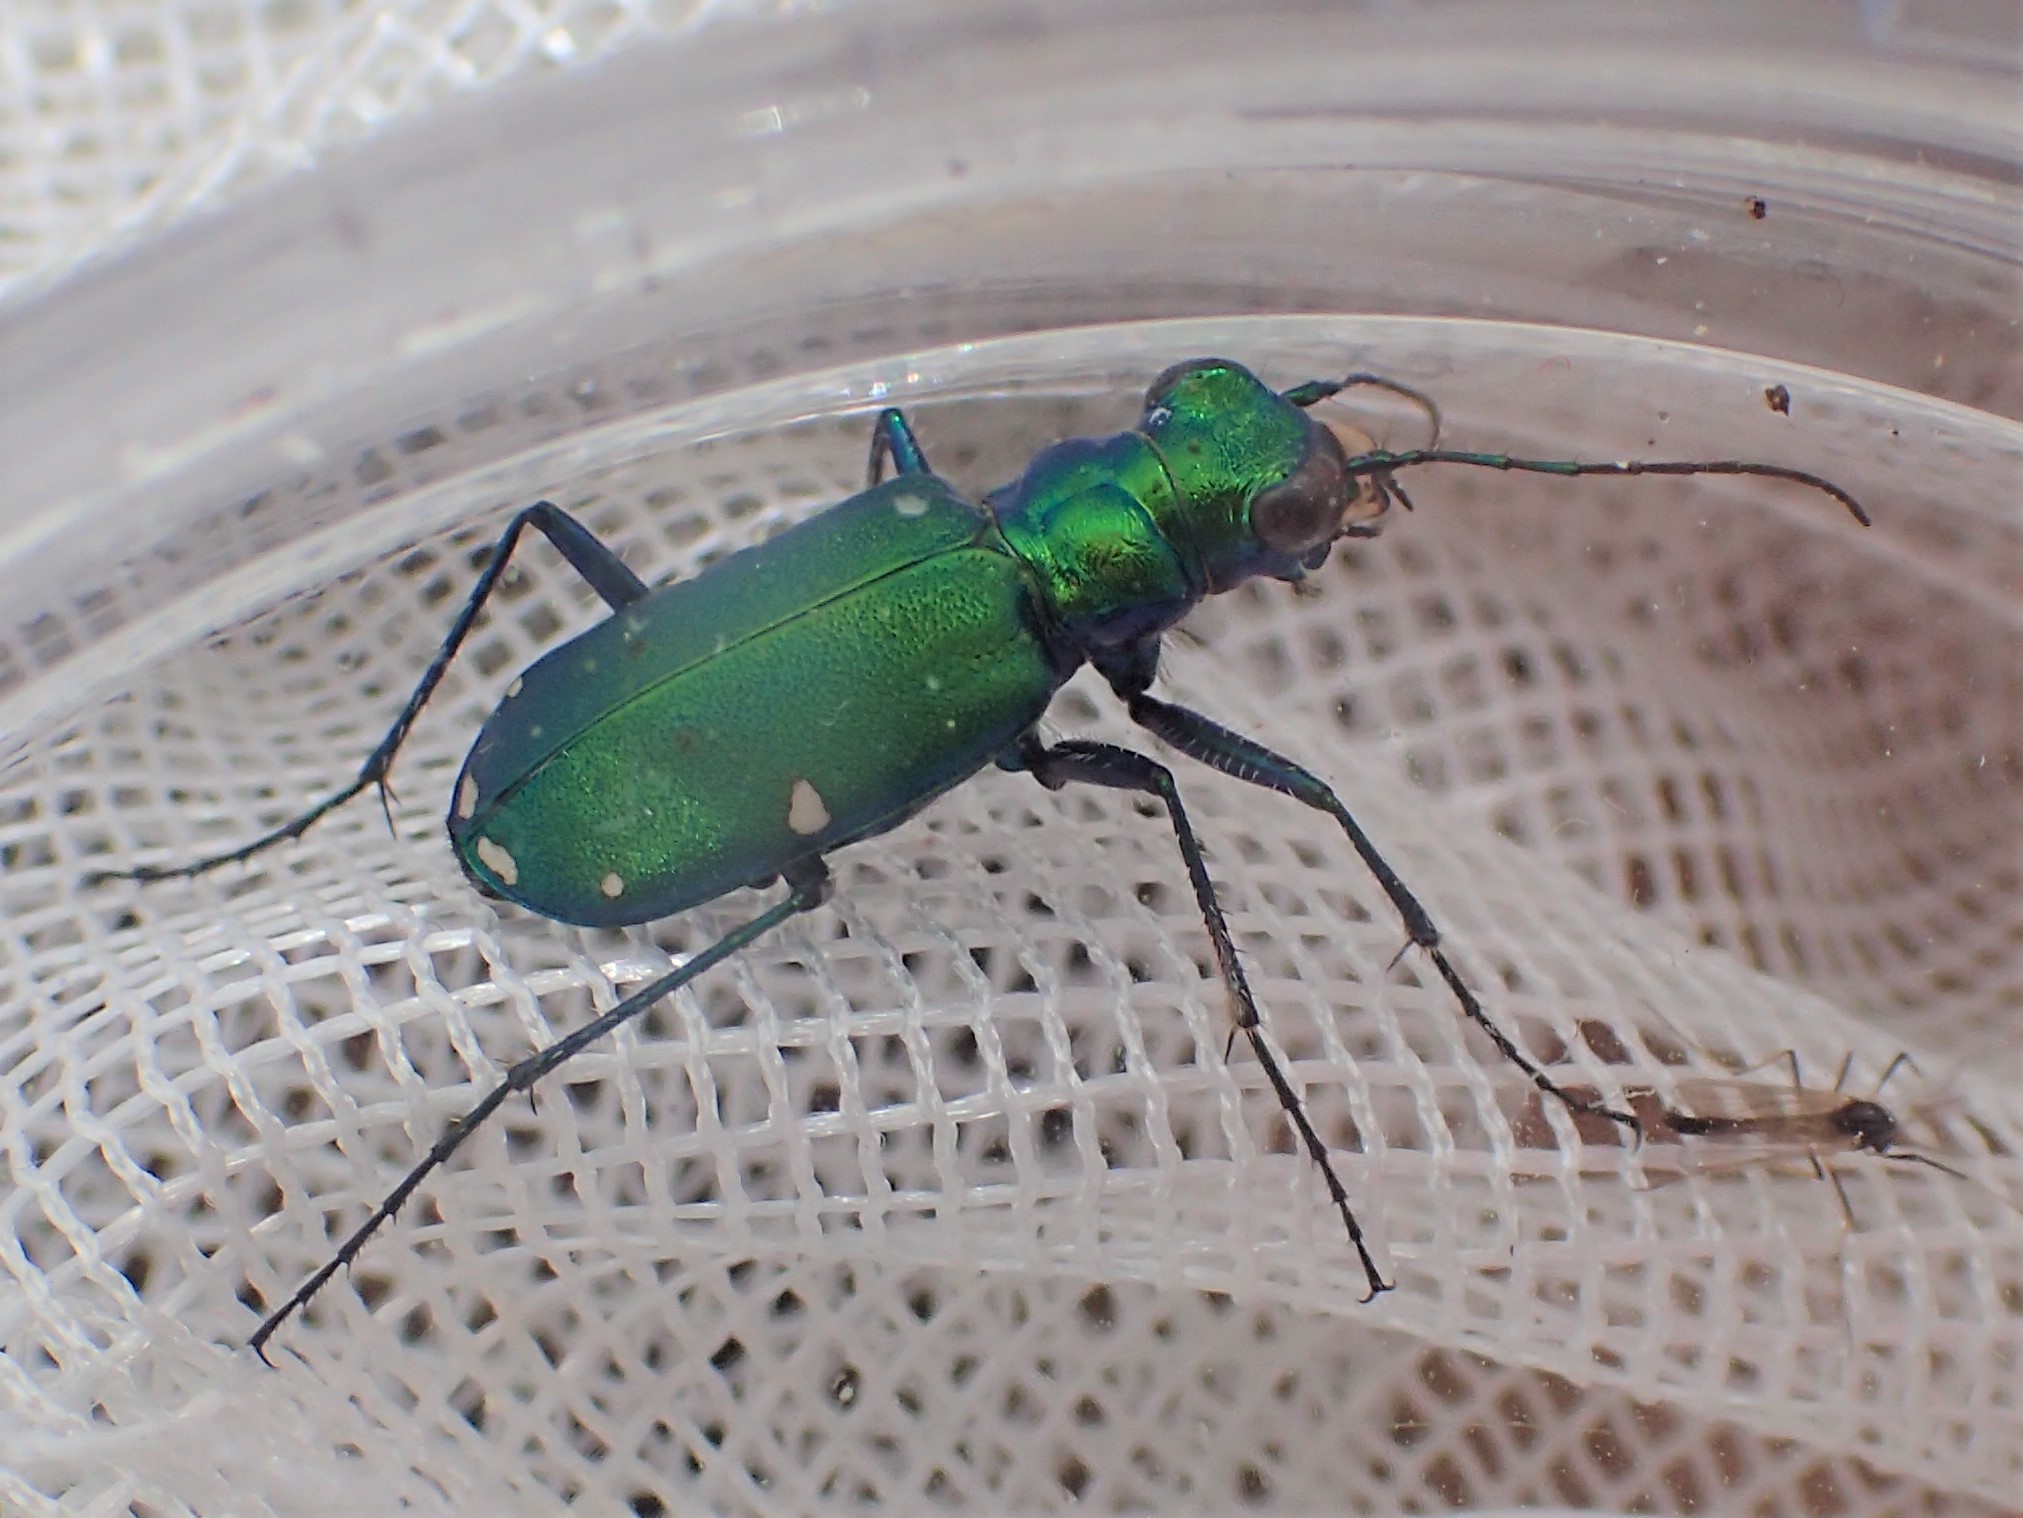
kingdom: Animalia
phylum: Arthropoda
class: Insecta
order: Coleoptera
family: Carabidae
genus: Cicindela
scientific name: Cicindela sexguttata
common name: Six-spotted tiger beetle
